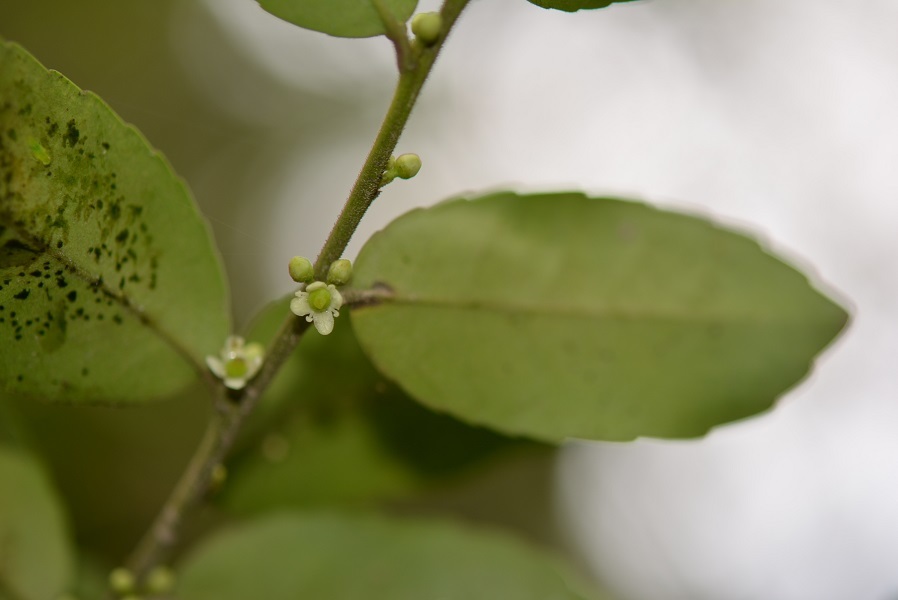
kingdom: Plantae
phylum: Tracheophyta
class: Magnoliopsida
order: Aquifoliales
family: Aquifoliaceae
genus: Ilex
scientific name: Ilex discolor
